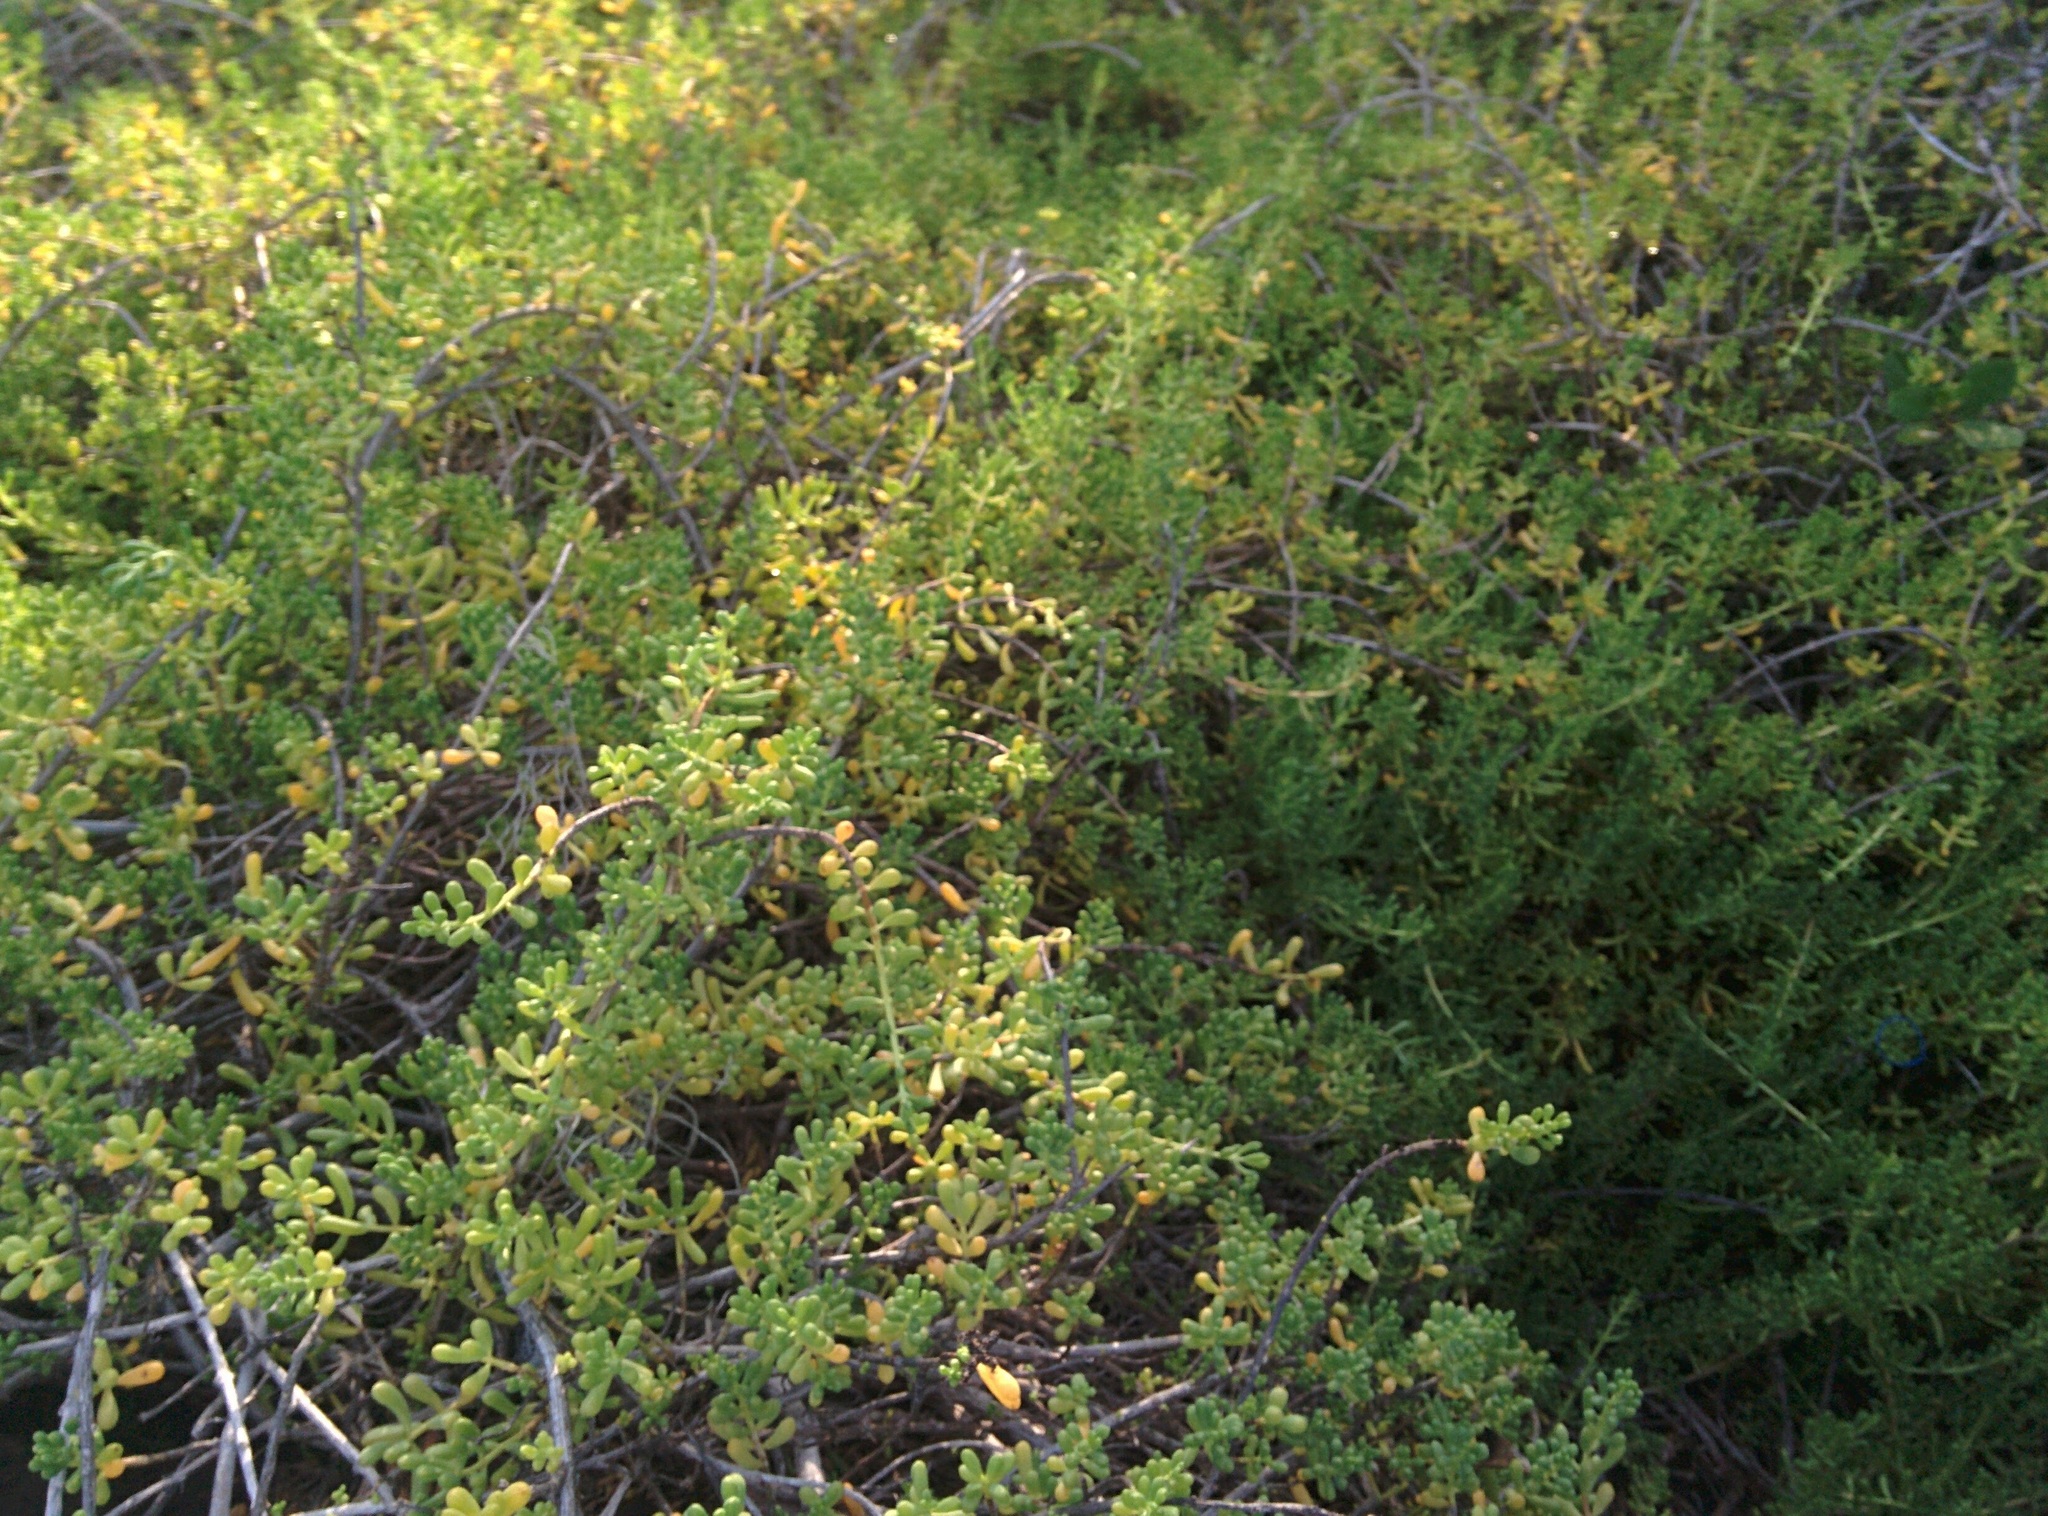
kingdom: Plantae
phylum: Tracheophyta
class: Magnoliopsida
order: Solanales
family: Solanaceae
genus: Nolana
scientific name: Nolana galapagensis
